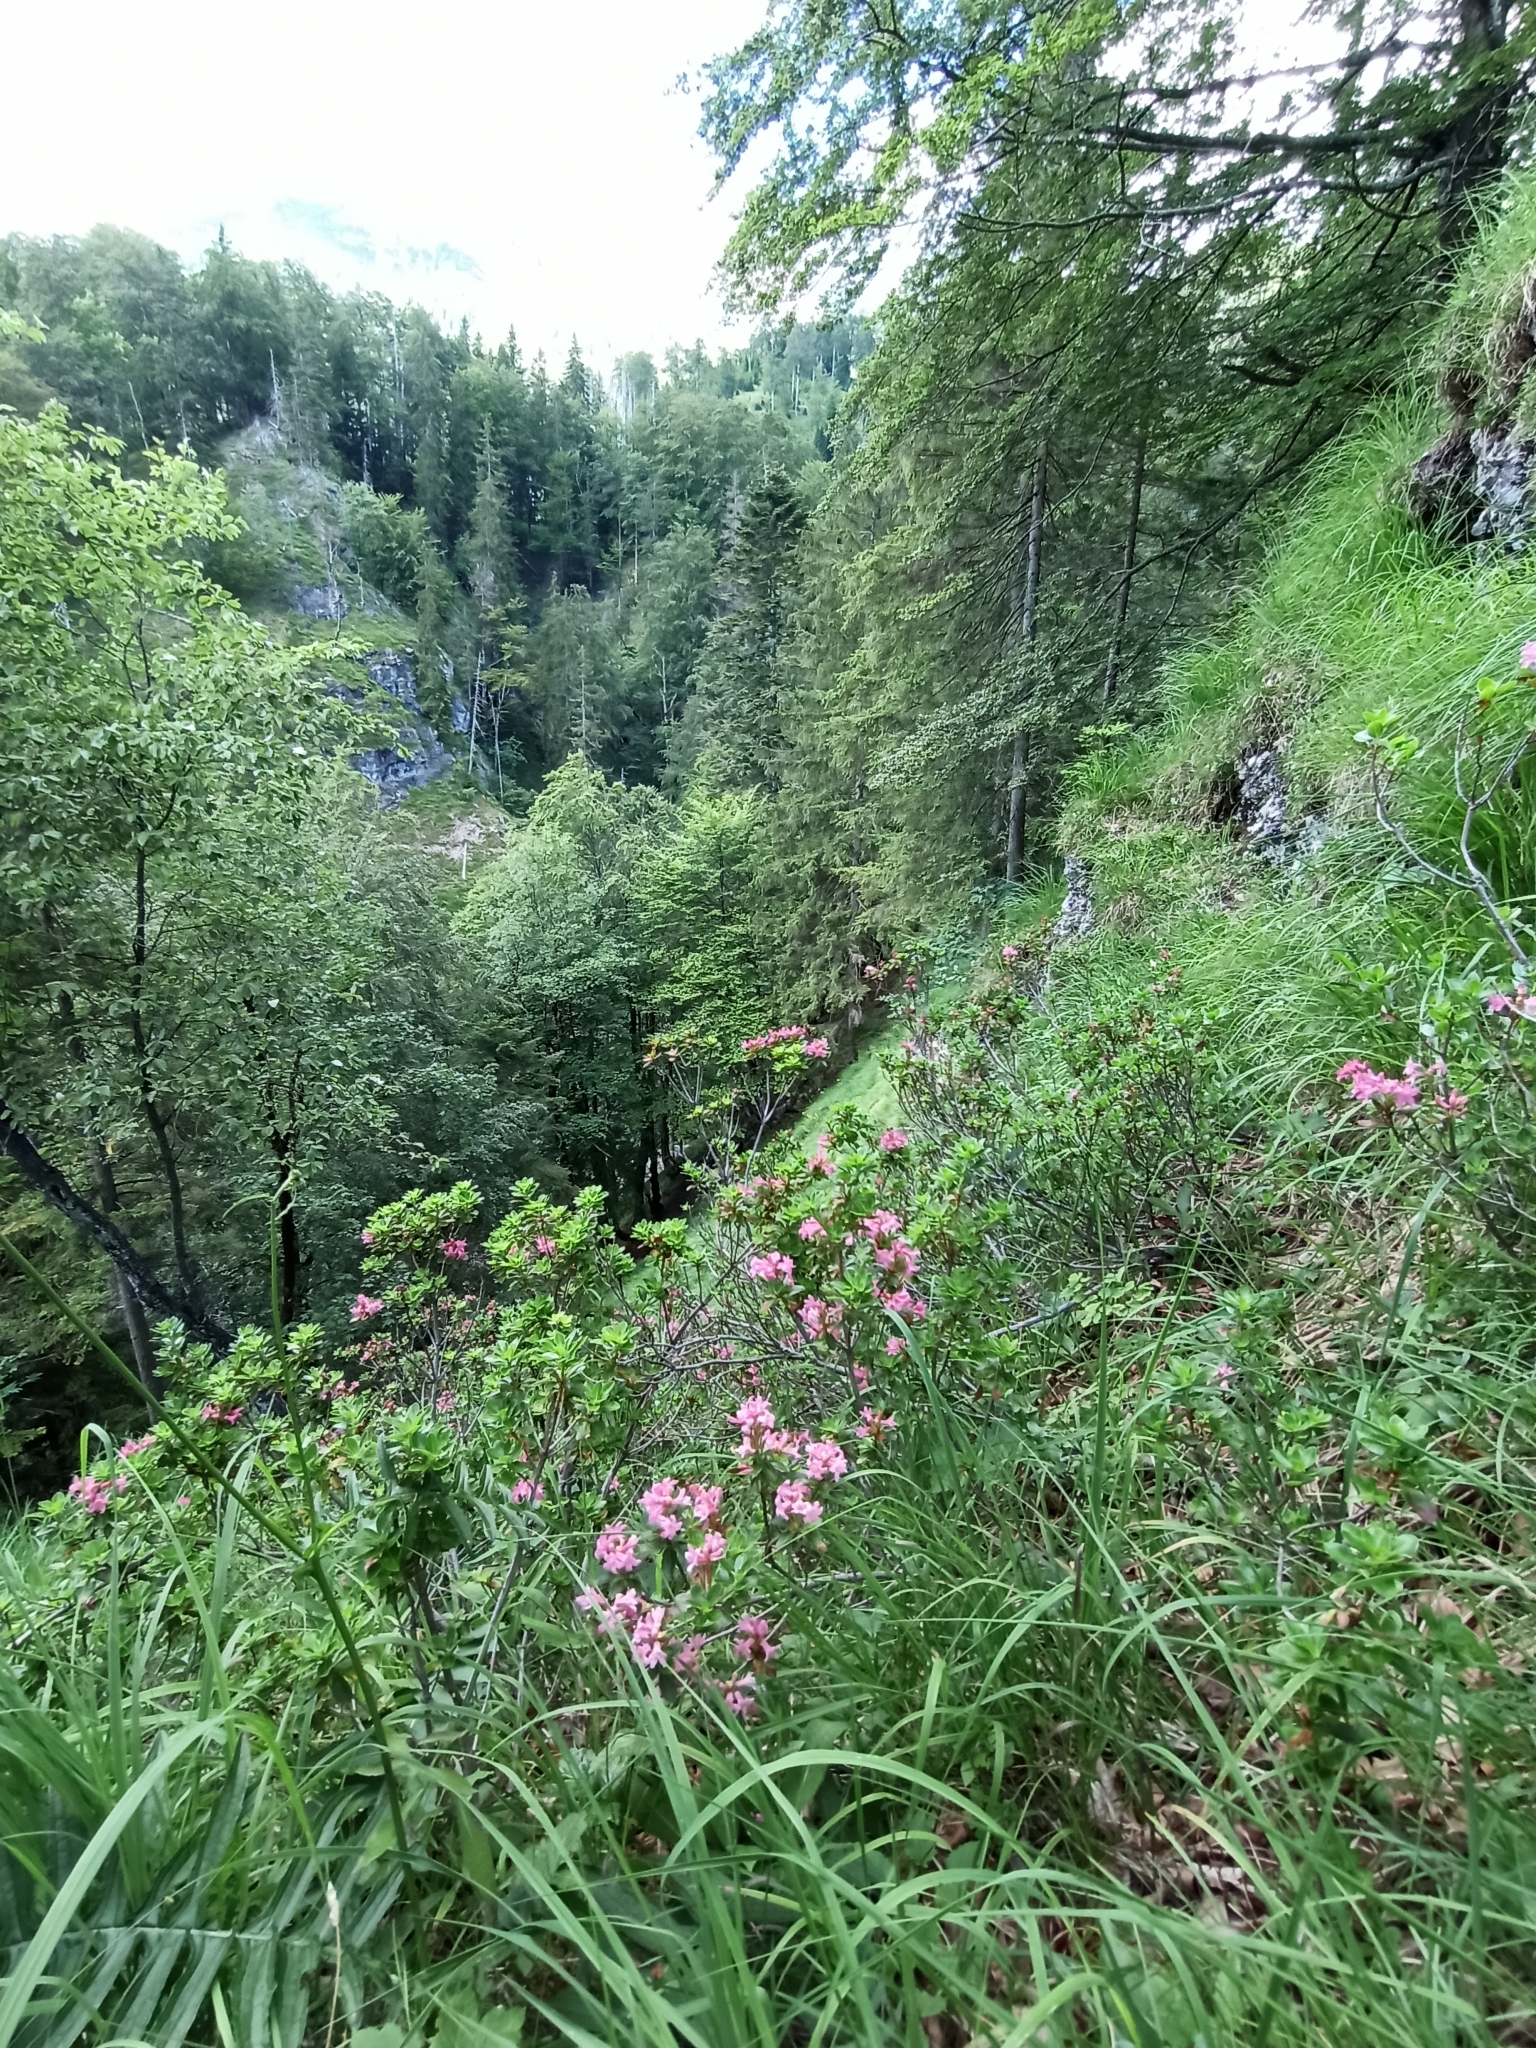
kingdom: Plantae
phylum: Tracheophyta
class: Magnoliopsida
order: Ericales
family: Ericaceae
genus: Rhododendron
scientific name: Rhododendron hirsutum
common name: Hairy alpenrose
